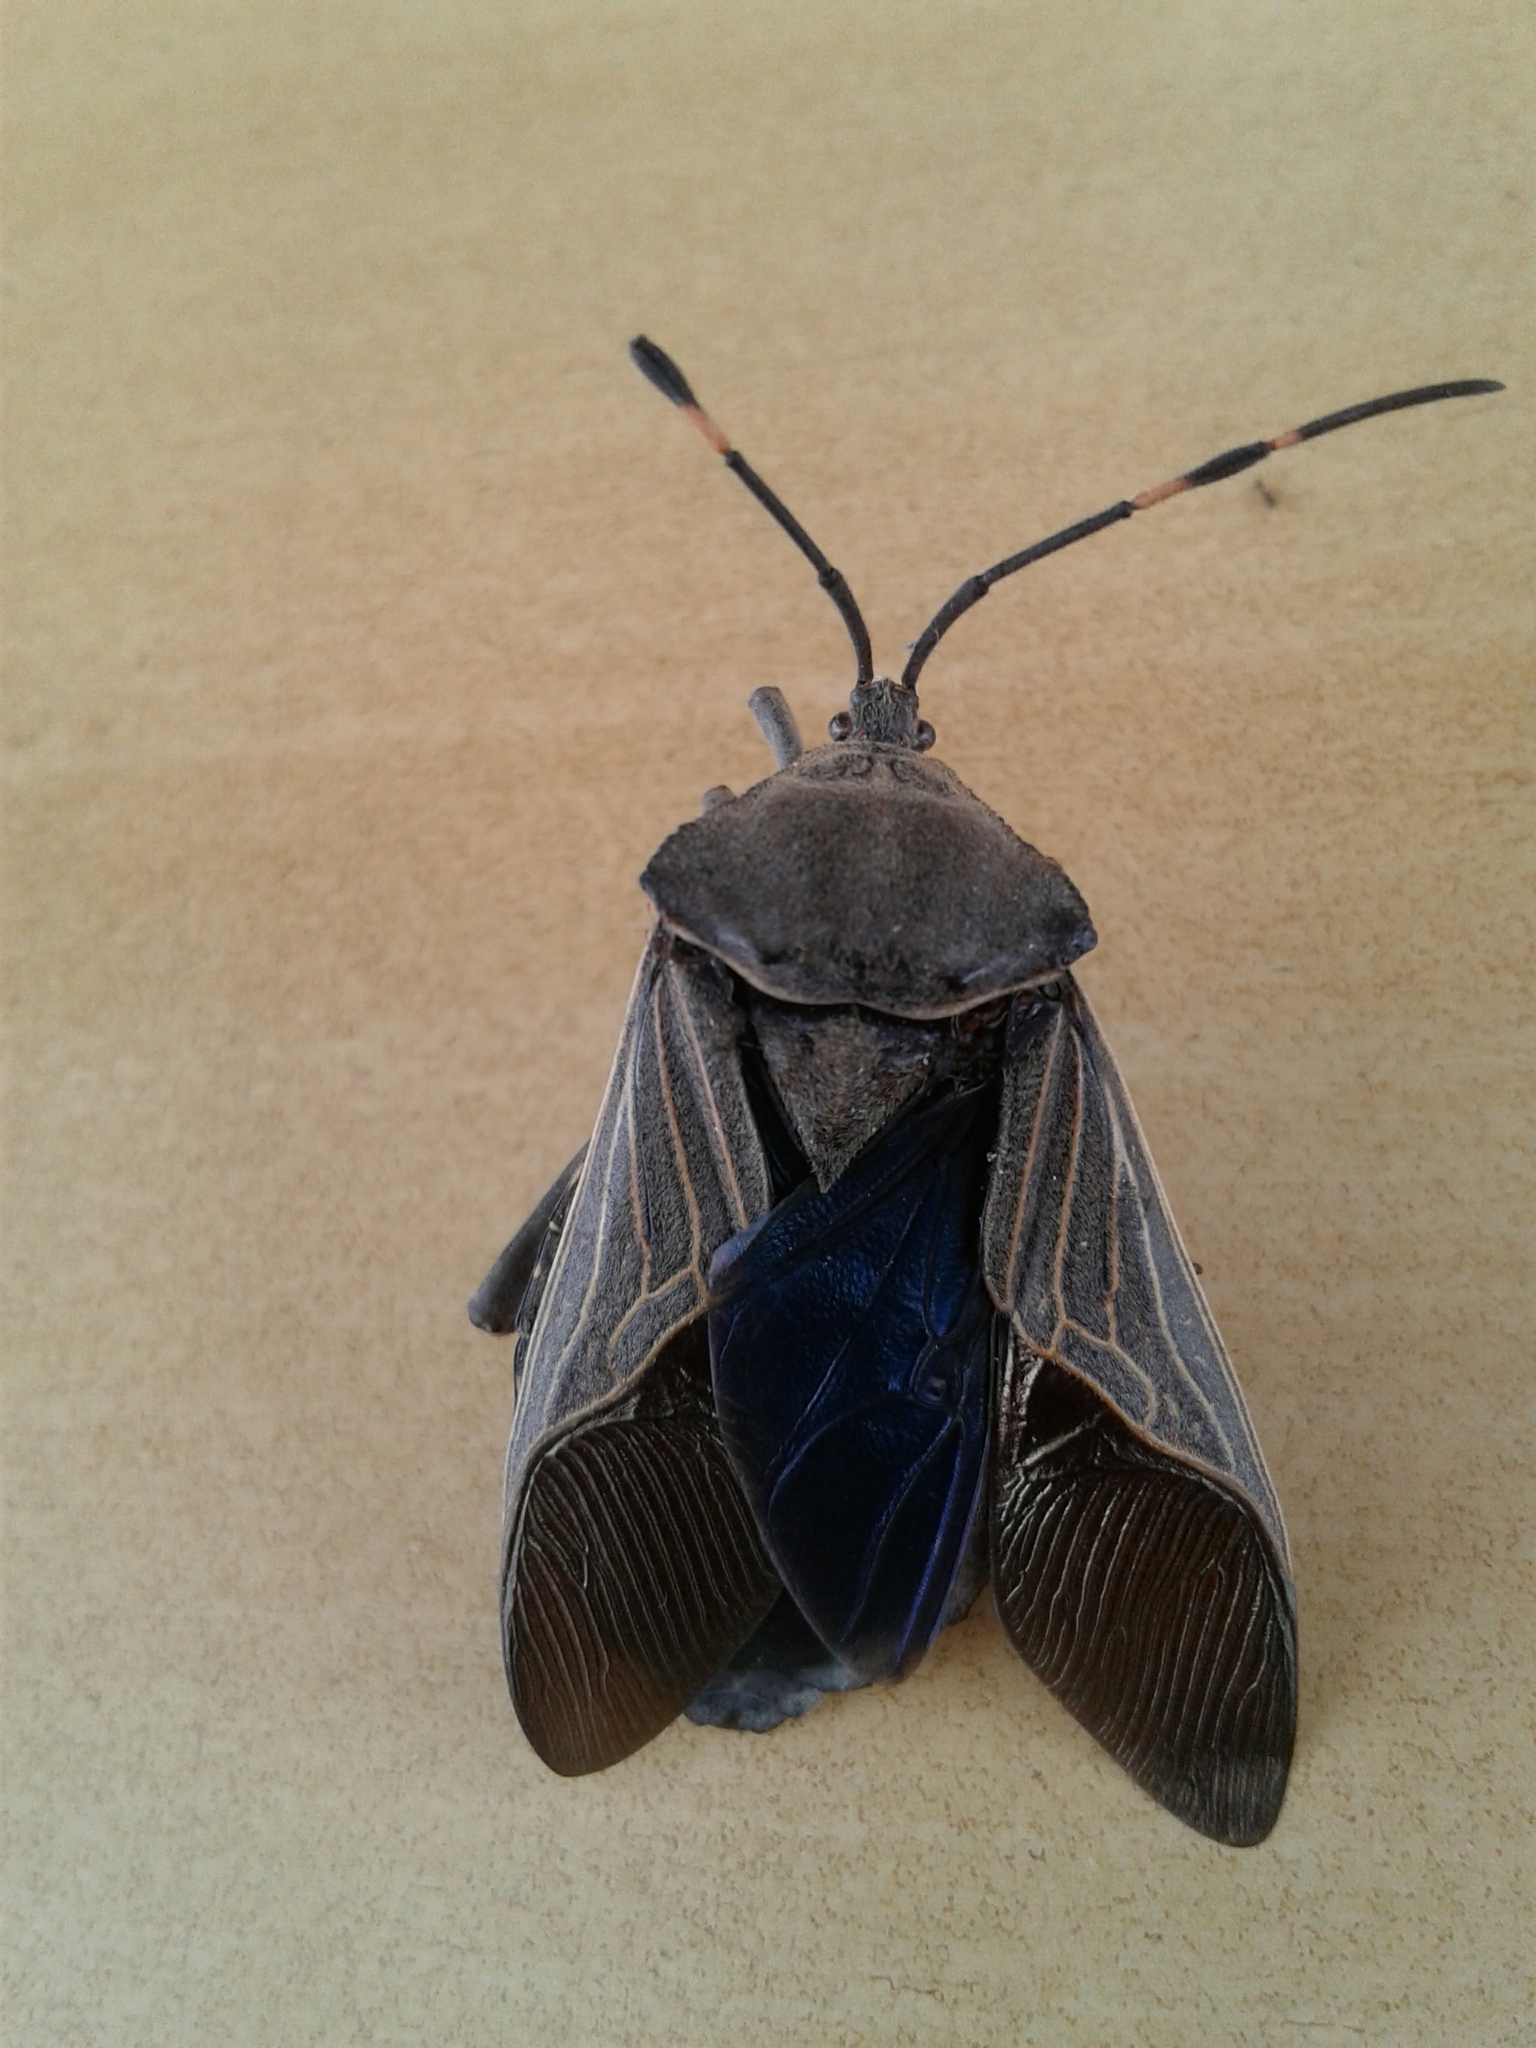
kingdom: Animalia
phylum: Arthropoda
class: Insecta
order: Hemiptera
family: Coreidae
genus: Pachylis
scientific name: Pachylis nervosus
